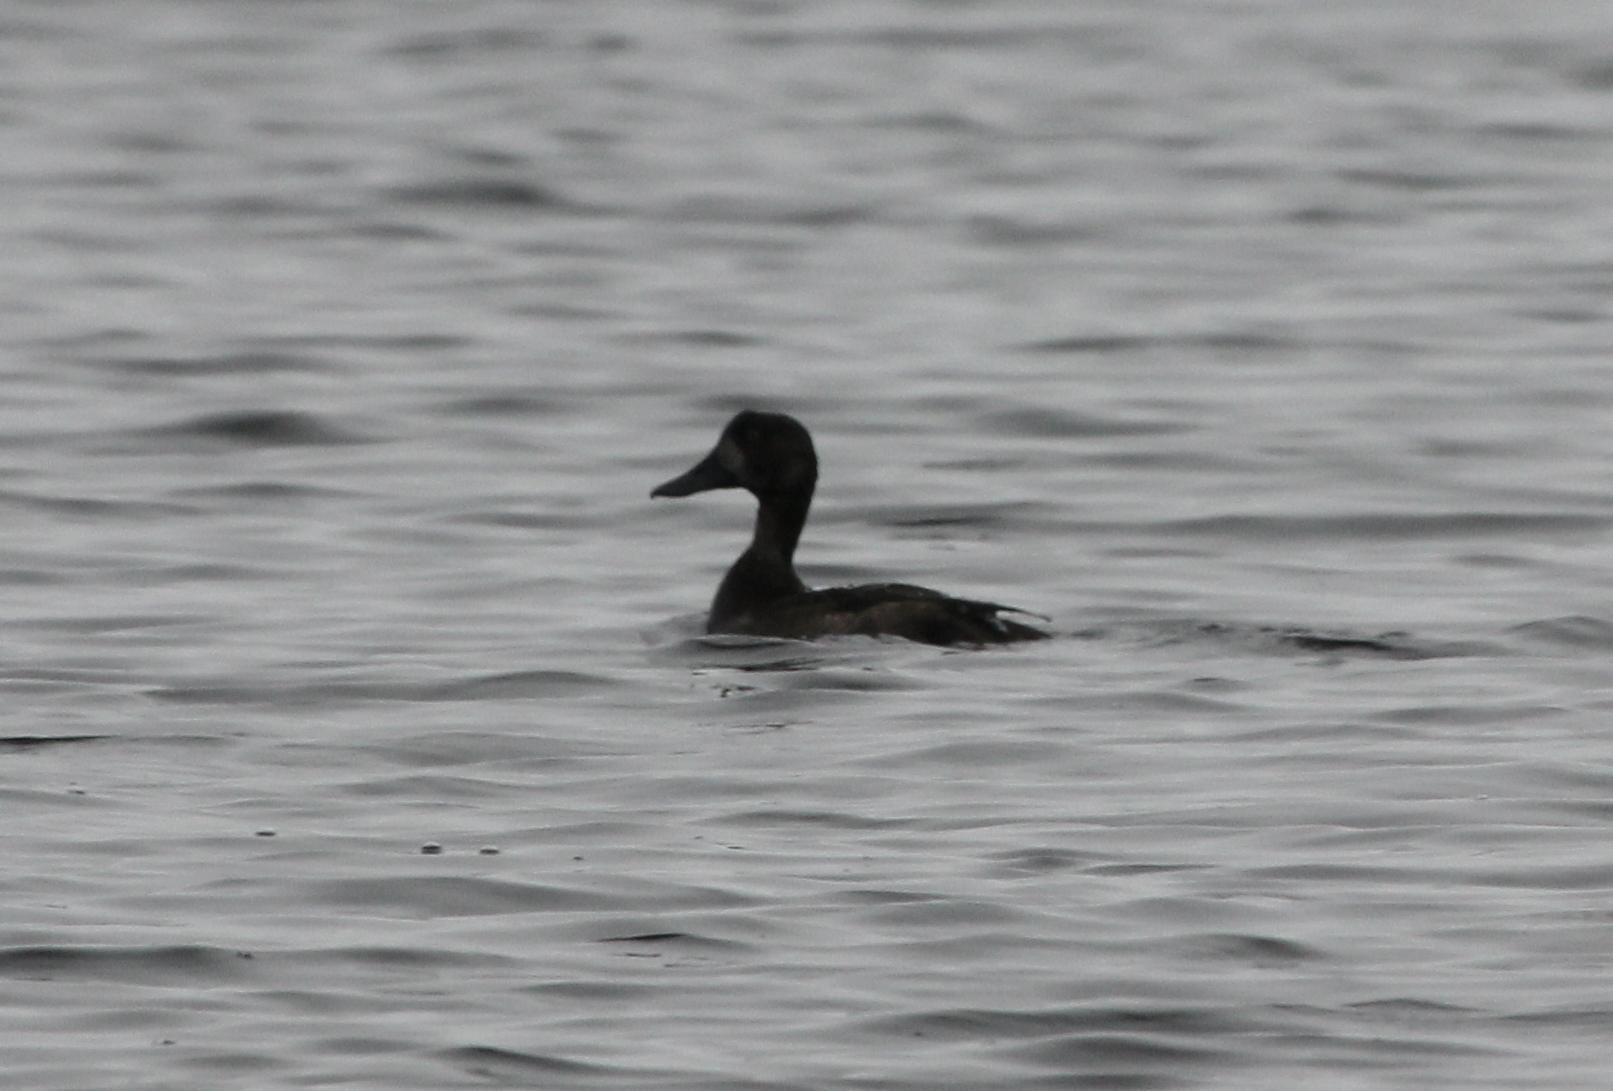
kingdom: Animalia
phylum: Chordata
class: Aves
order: Anseriformes
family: Anatidae
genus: Aythya
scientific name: Aythya marila
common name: Greater scaup
